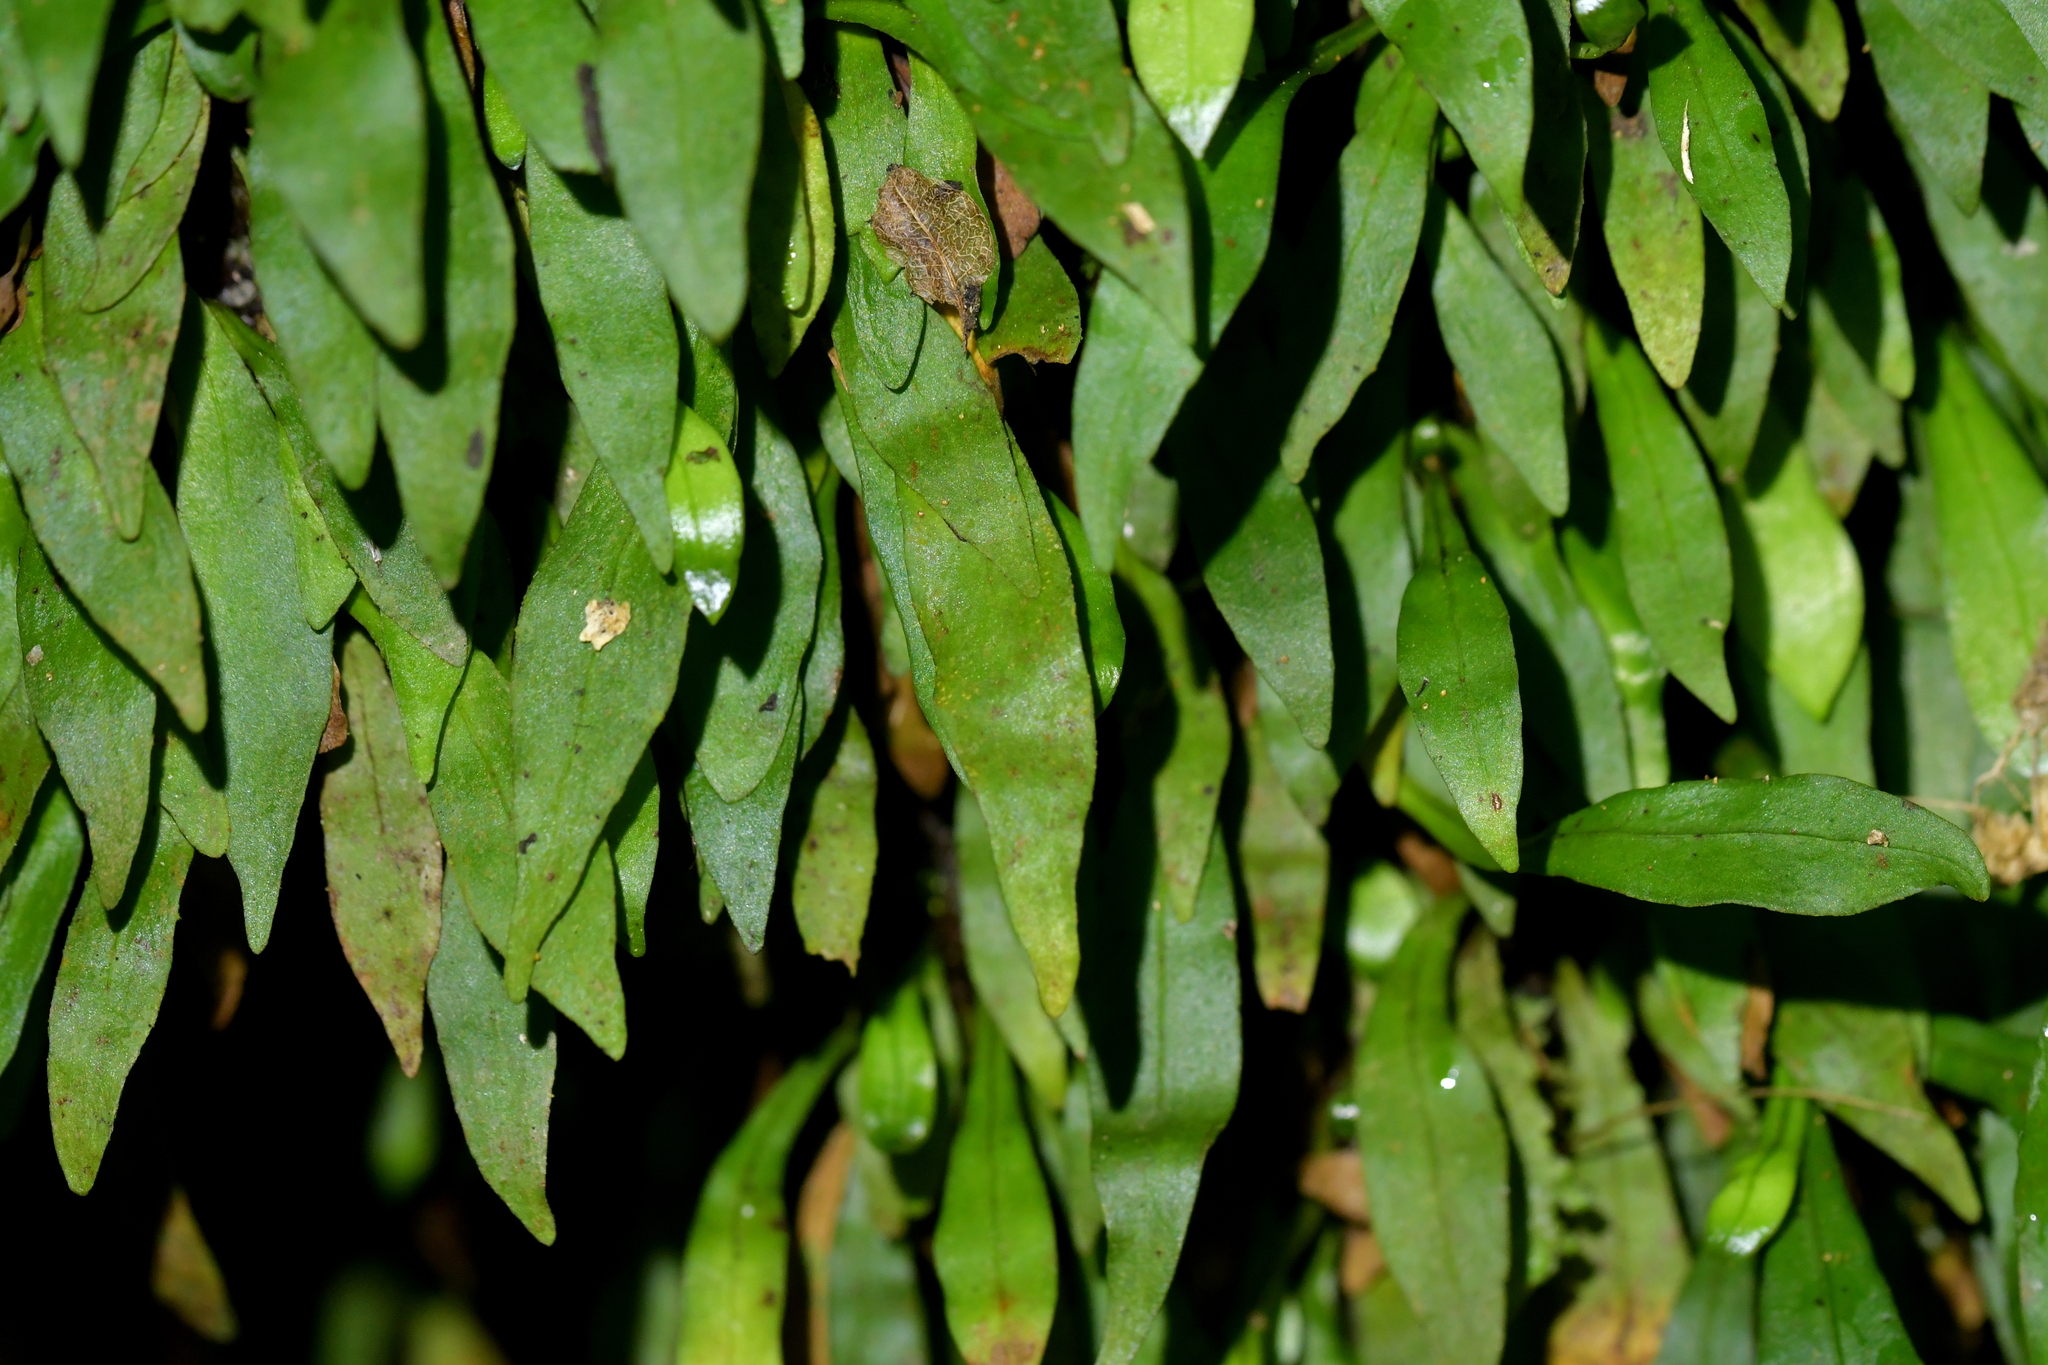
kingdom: Plantae
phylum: Tracheophyta
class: Polypodiopsida
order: Polypodiales
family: Polypodiaceae
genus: Loxogramme
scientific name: Loxogramme dictyopteris
